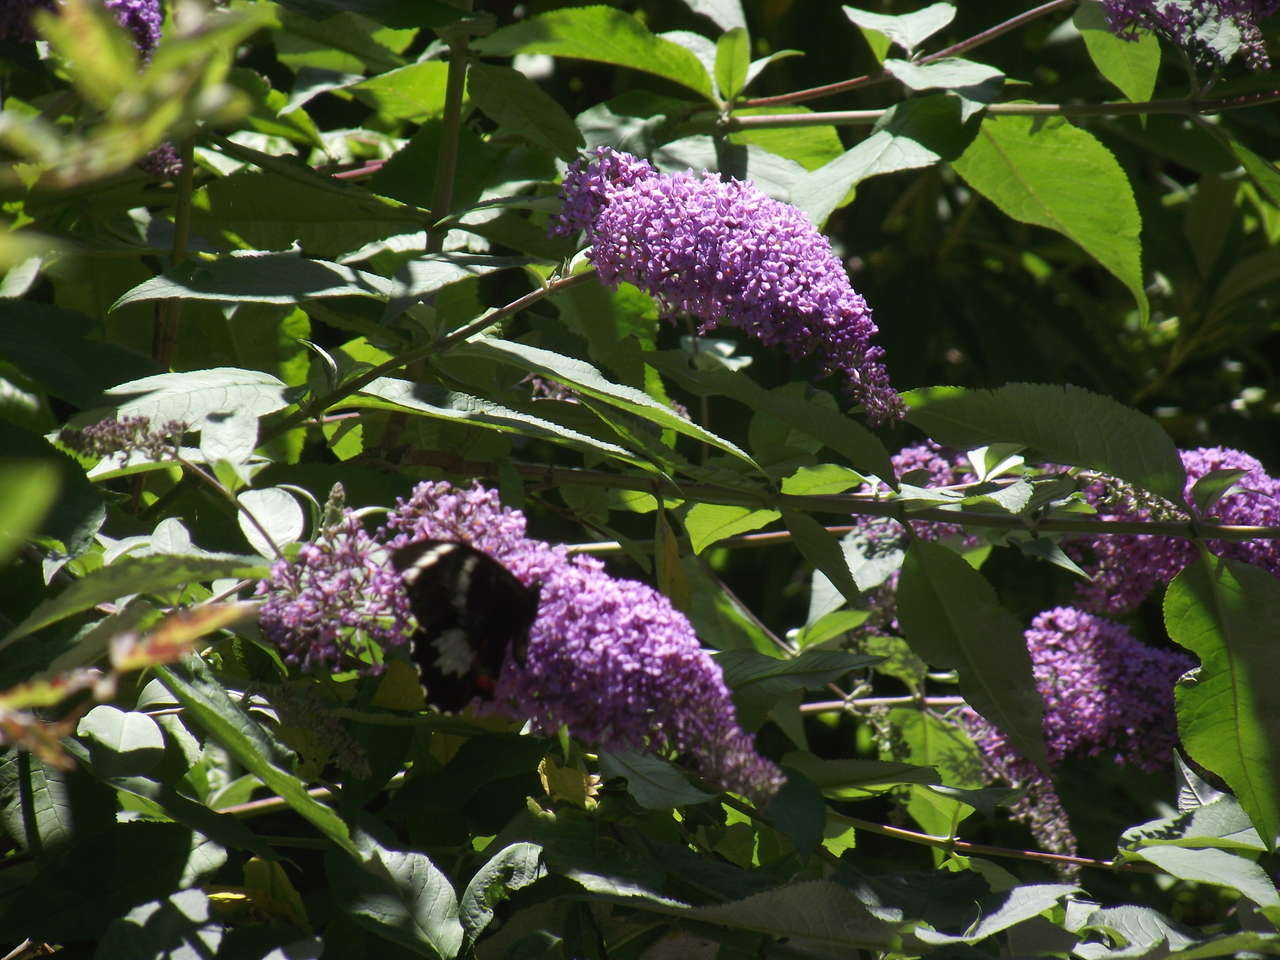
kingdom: Animalia
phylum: Arthropoda
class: Insecta
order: Lepidoptera
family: Papilionidae
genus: Papilio
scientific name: Papilio aegeus
